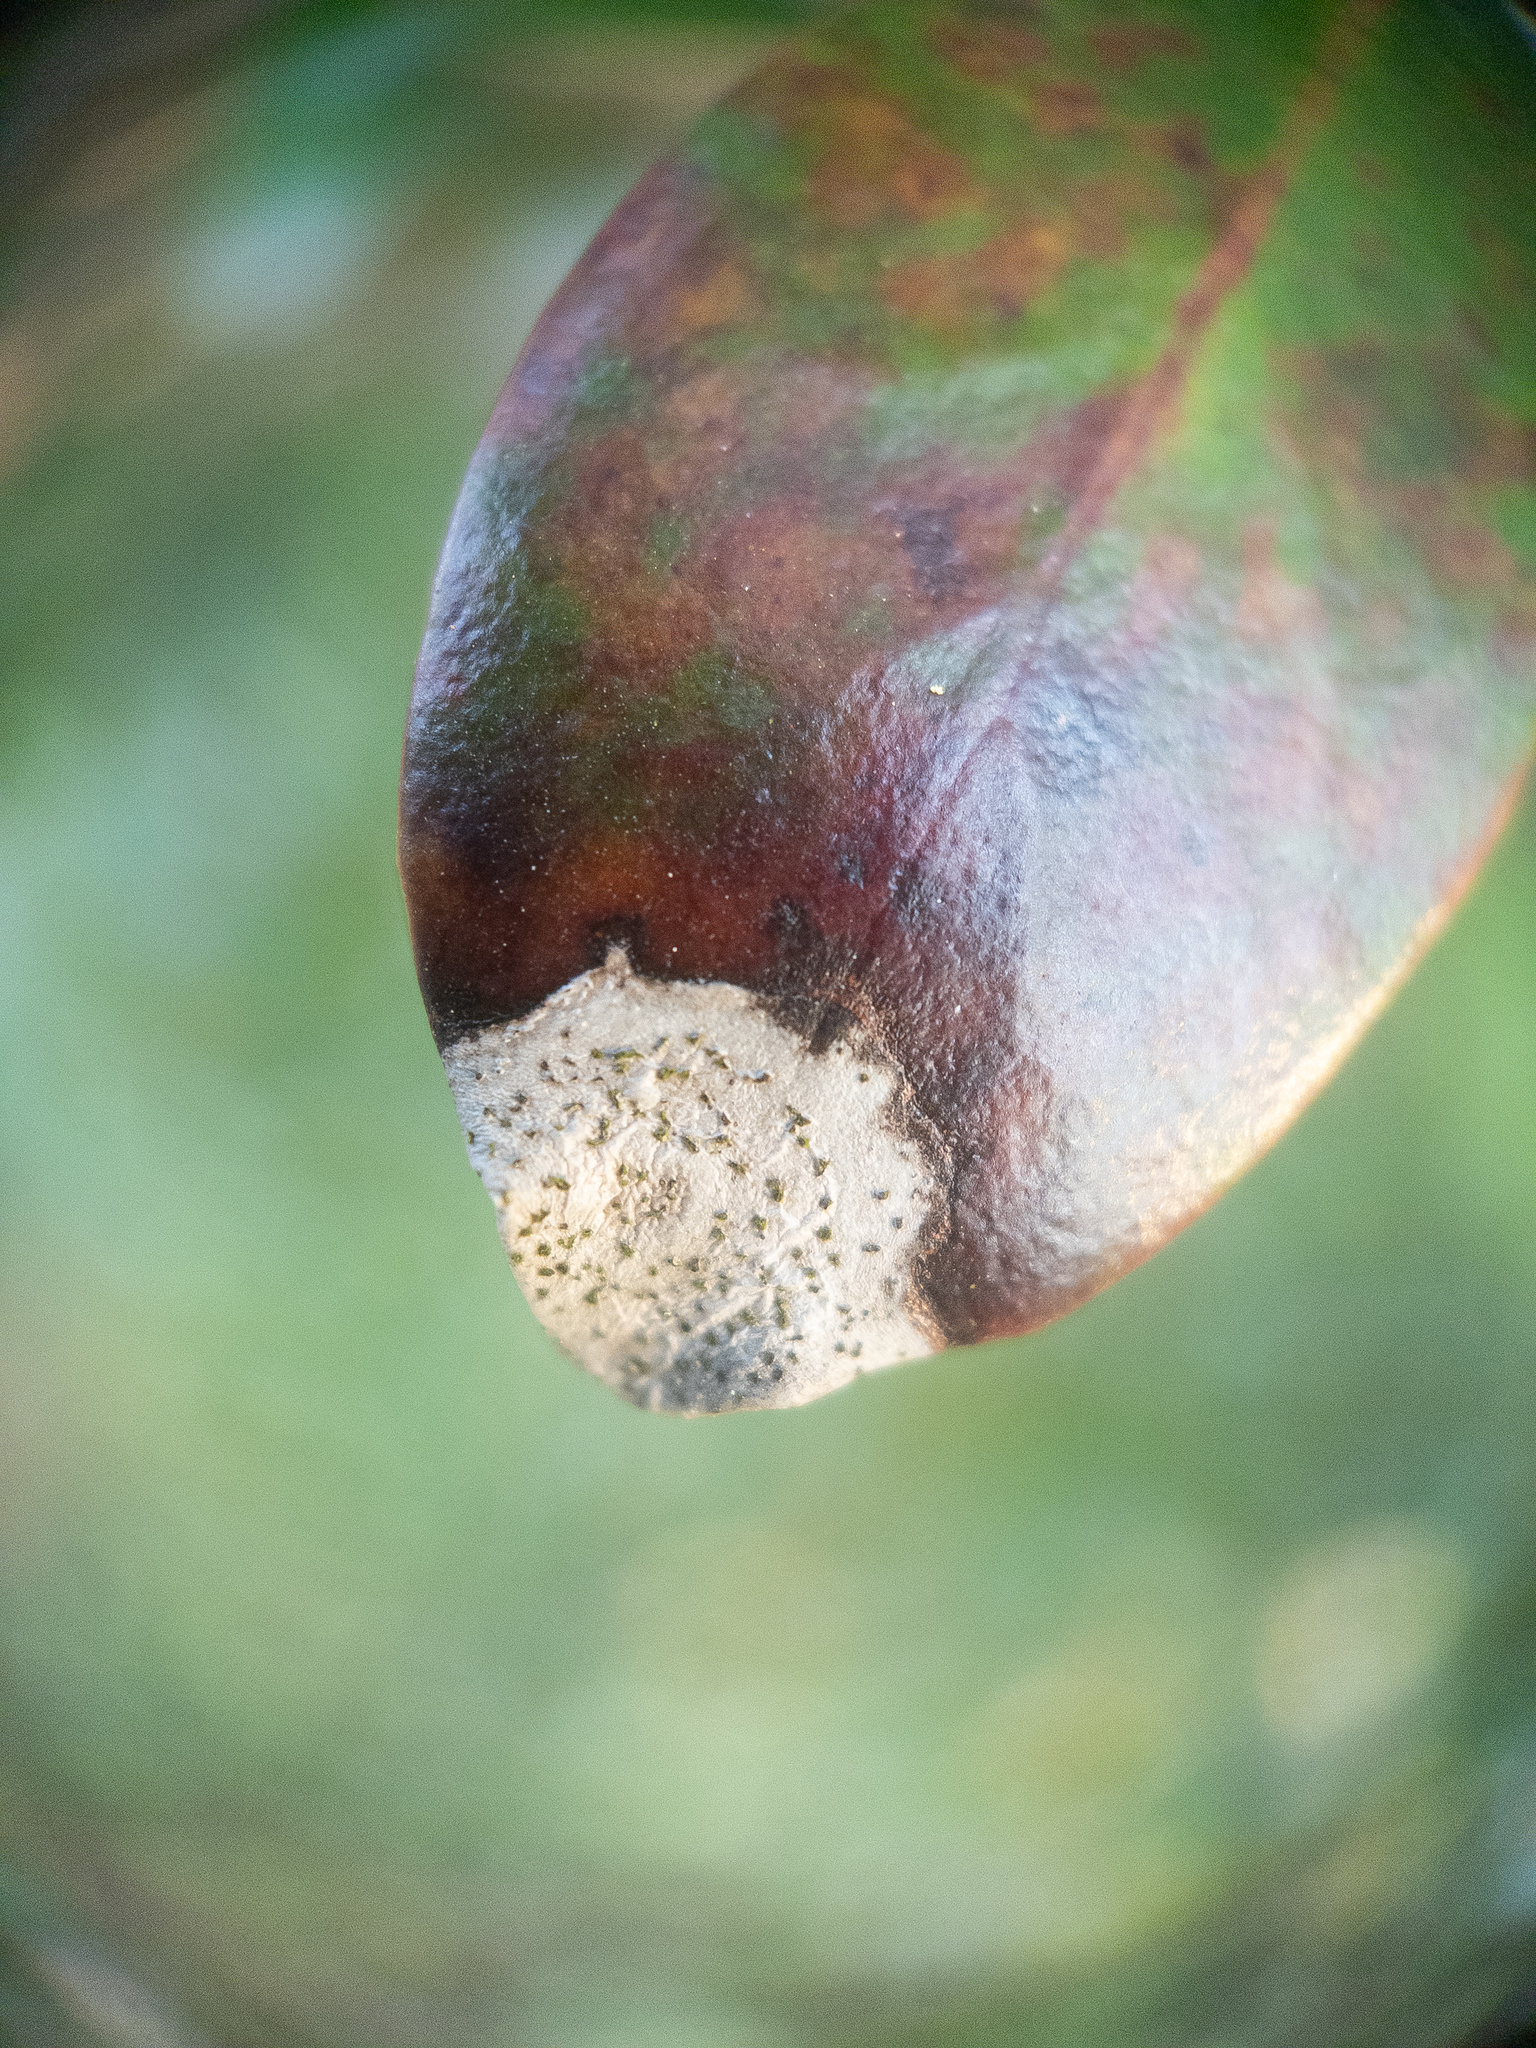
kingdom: Fungi
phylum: Ascomycota
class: Dothideomycetes
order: Mycosphaerellales
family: Mycosphaerellaceae
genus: Mycosphaerella
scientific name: Mycosphaerella colorata
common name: Mountain laurel leaf spot
